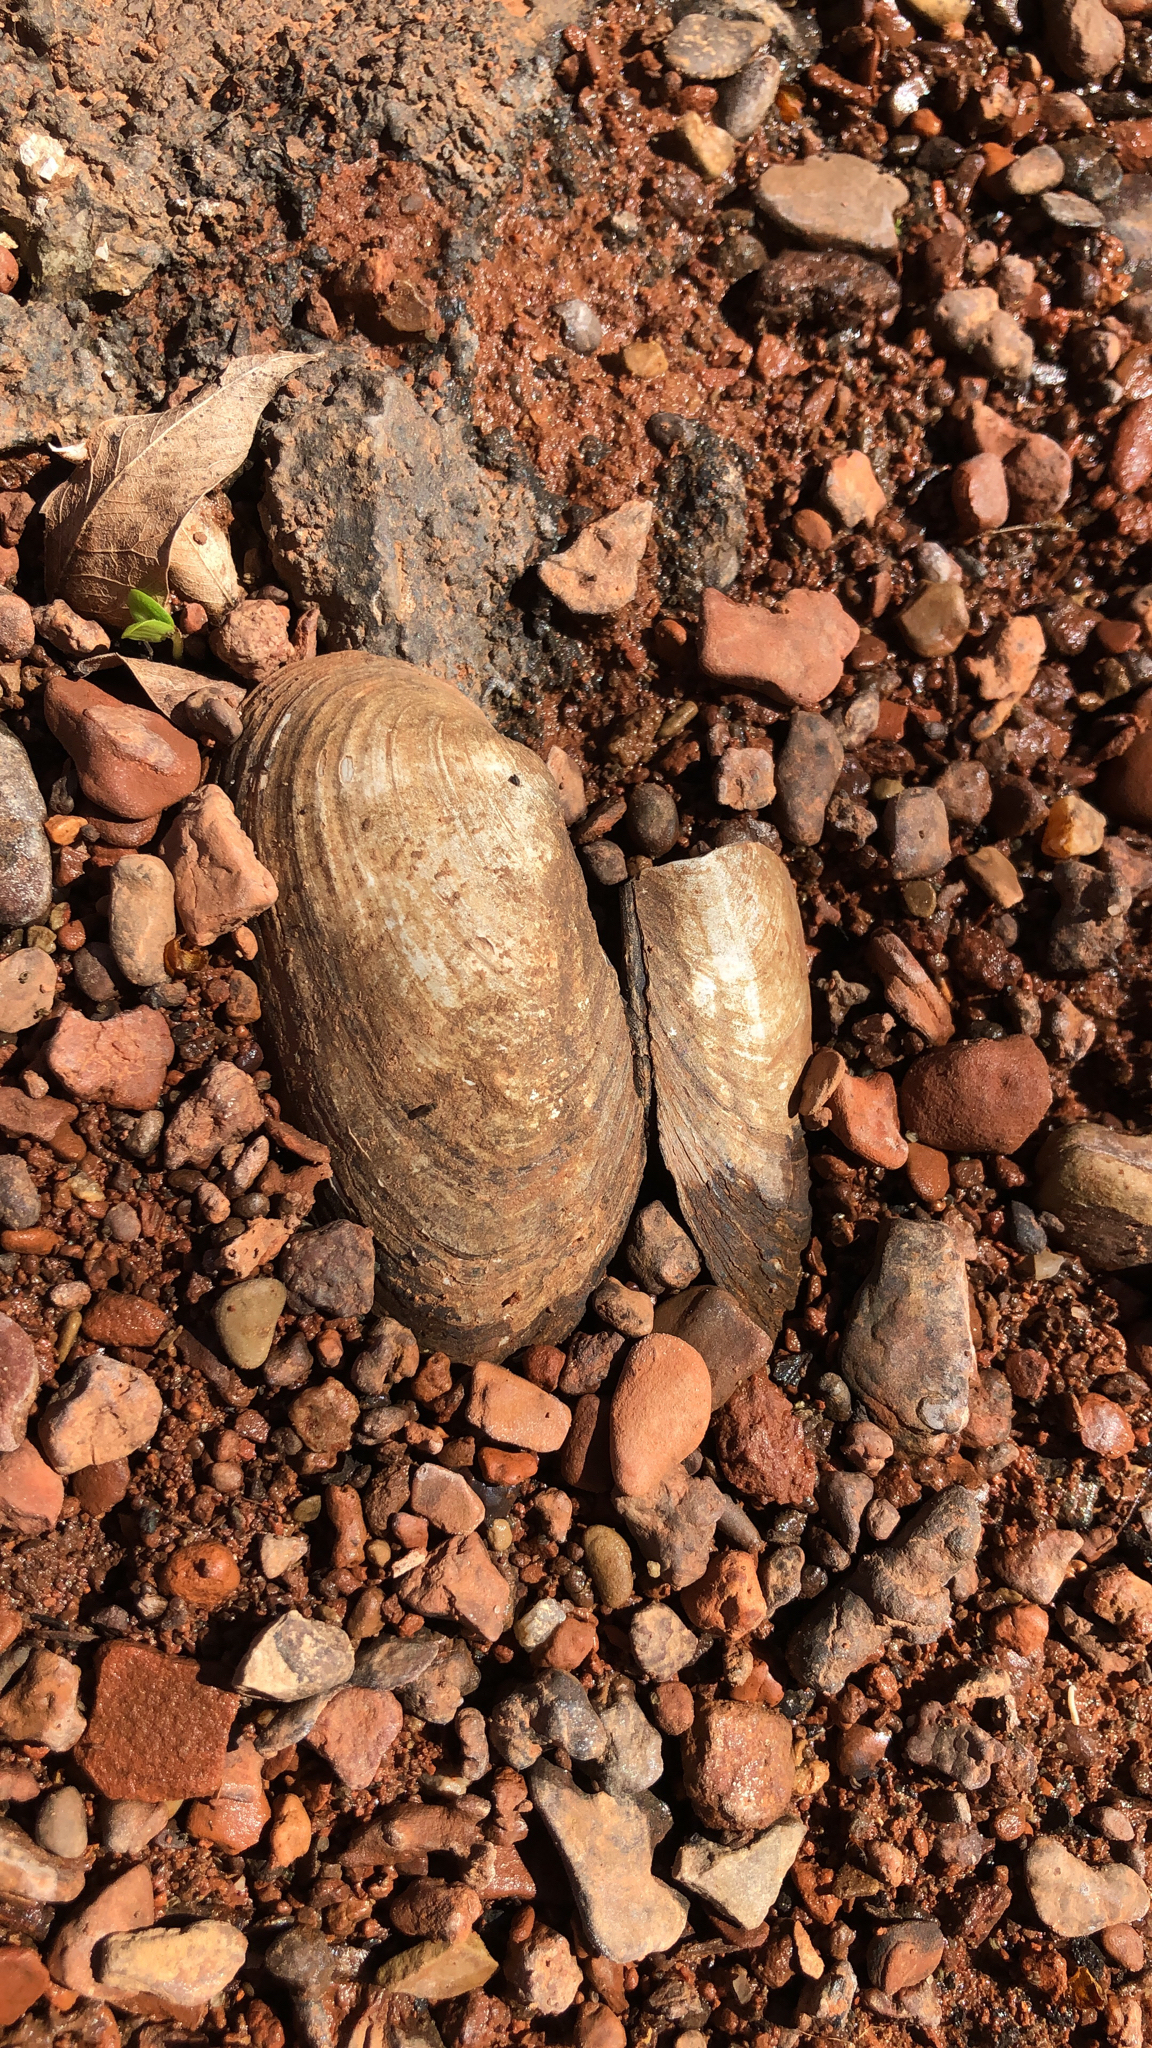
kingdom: Animalia
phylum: Mollusca
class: Bivalvia
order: Unionida
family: Unionidae
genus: Uniomerus
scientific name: Uniomerus tetralasmus
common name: Pondhorn
